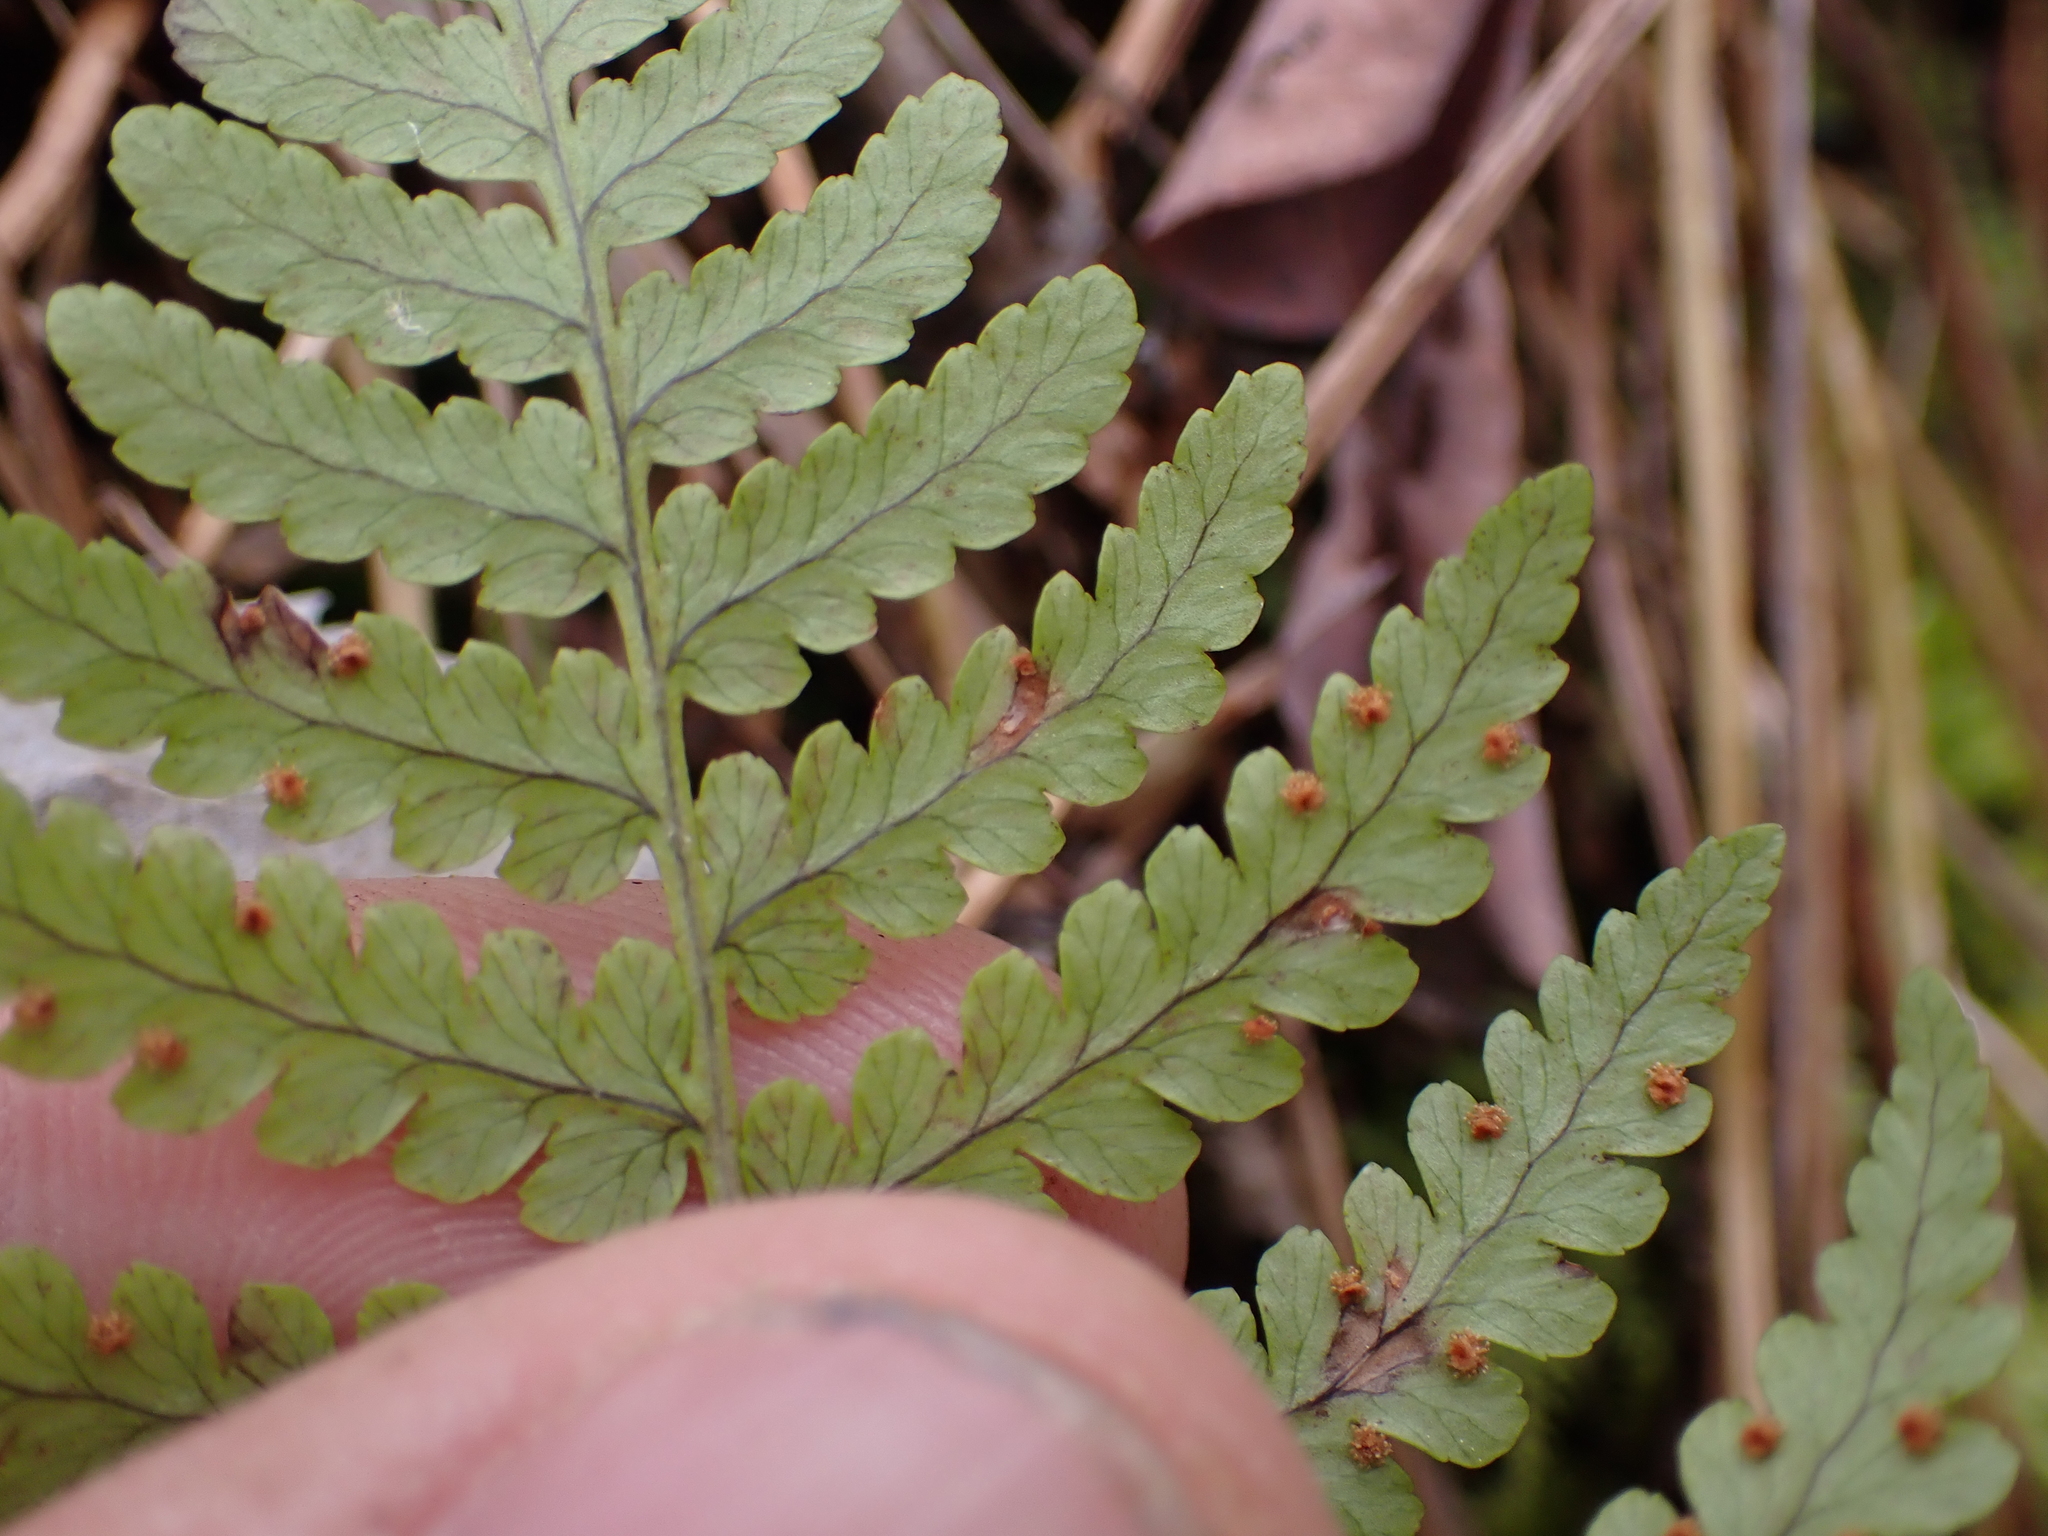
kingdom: Plantae
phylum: Tracheophyta
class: Polypodiopsida
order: Polypodiales
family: Dryopteridaceae
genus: Dryopteris
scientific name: Dryopteris marginalis
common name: Marginal wood fern
